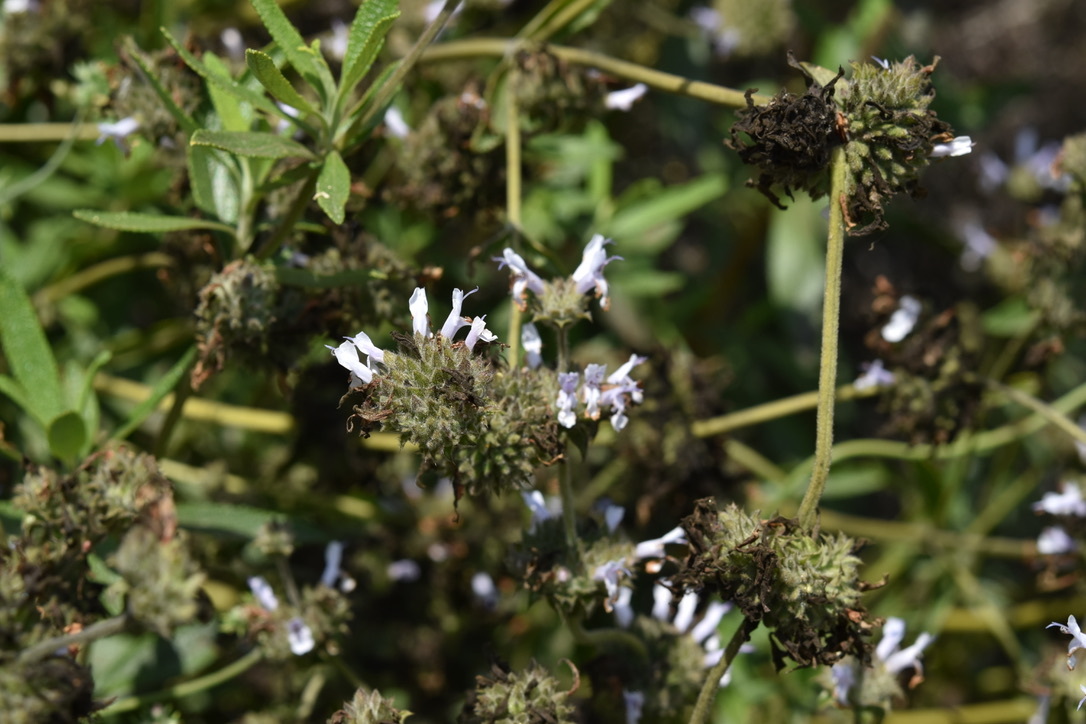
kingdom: Plantae
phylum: Tracheophyta
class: Magnoliopsida
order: Lamiales
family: Lamiaceae
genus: Salvia
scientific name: Salvia mellifera
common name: Black sage
